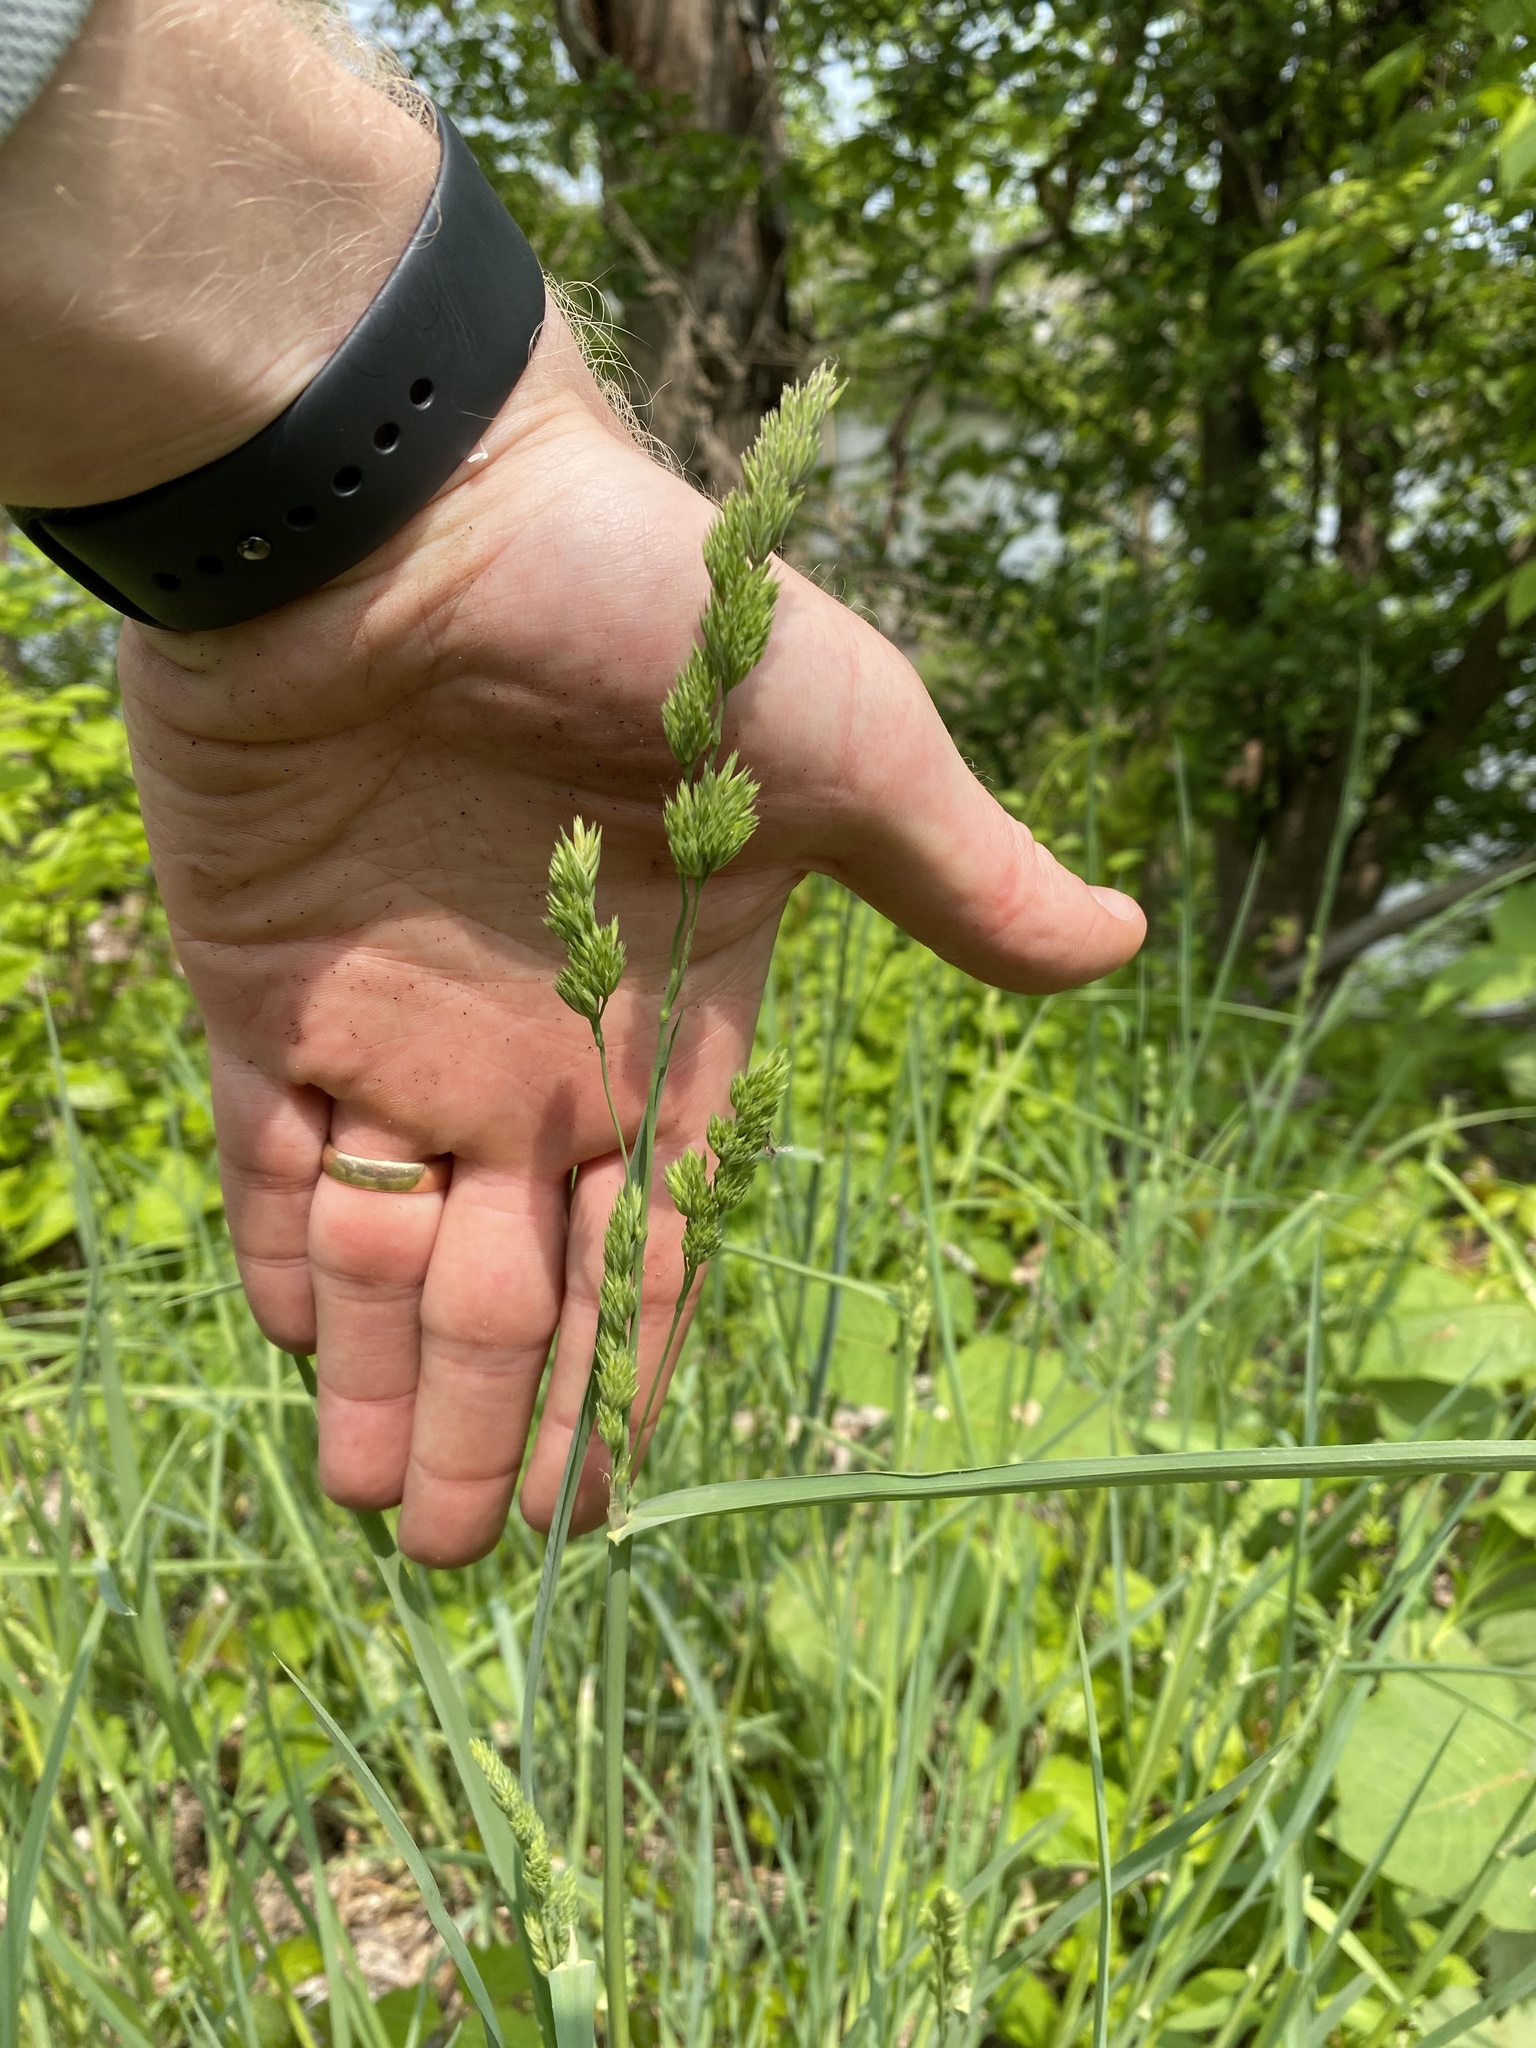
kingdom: Plantae
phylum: Tracheophyta
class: Liliopsida
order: Poales
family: Poaceae
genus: Dactylis
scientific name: Dactylis glomerata
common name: Orchardgrass
